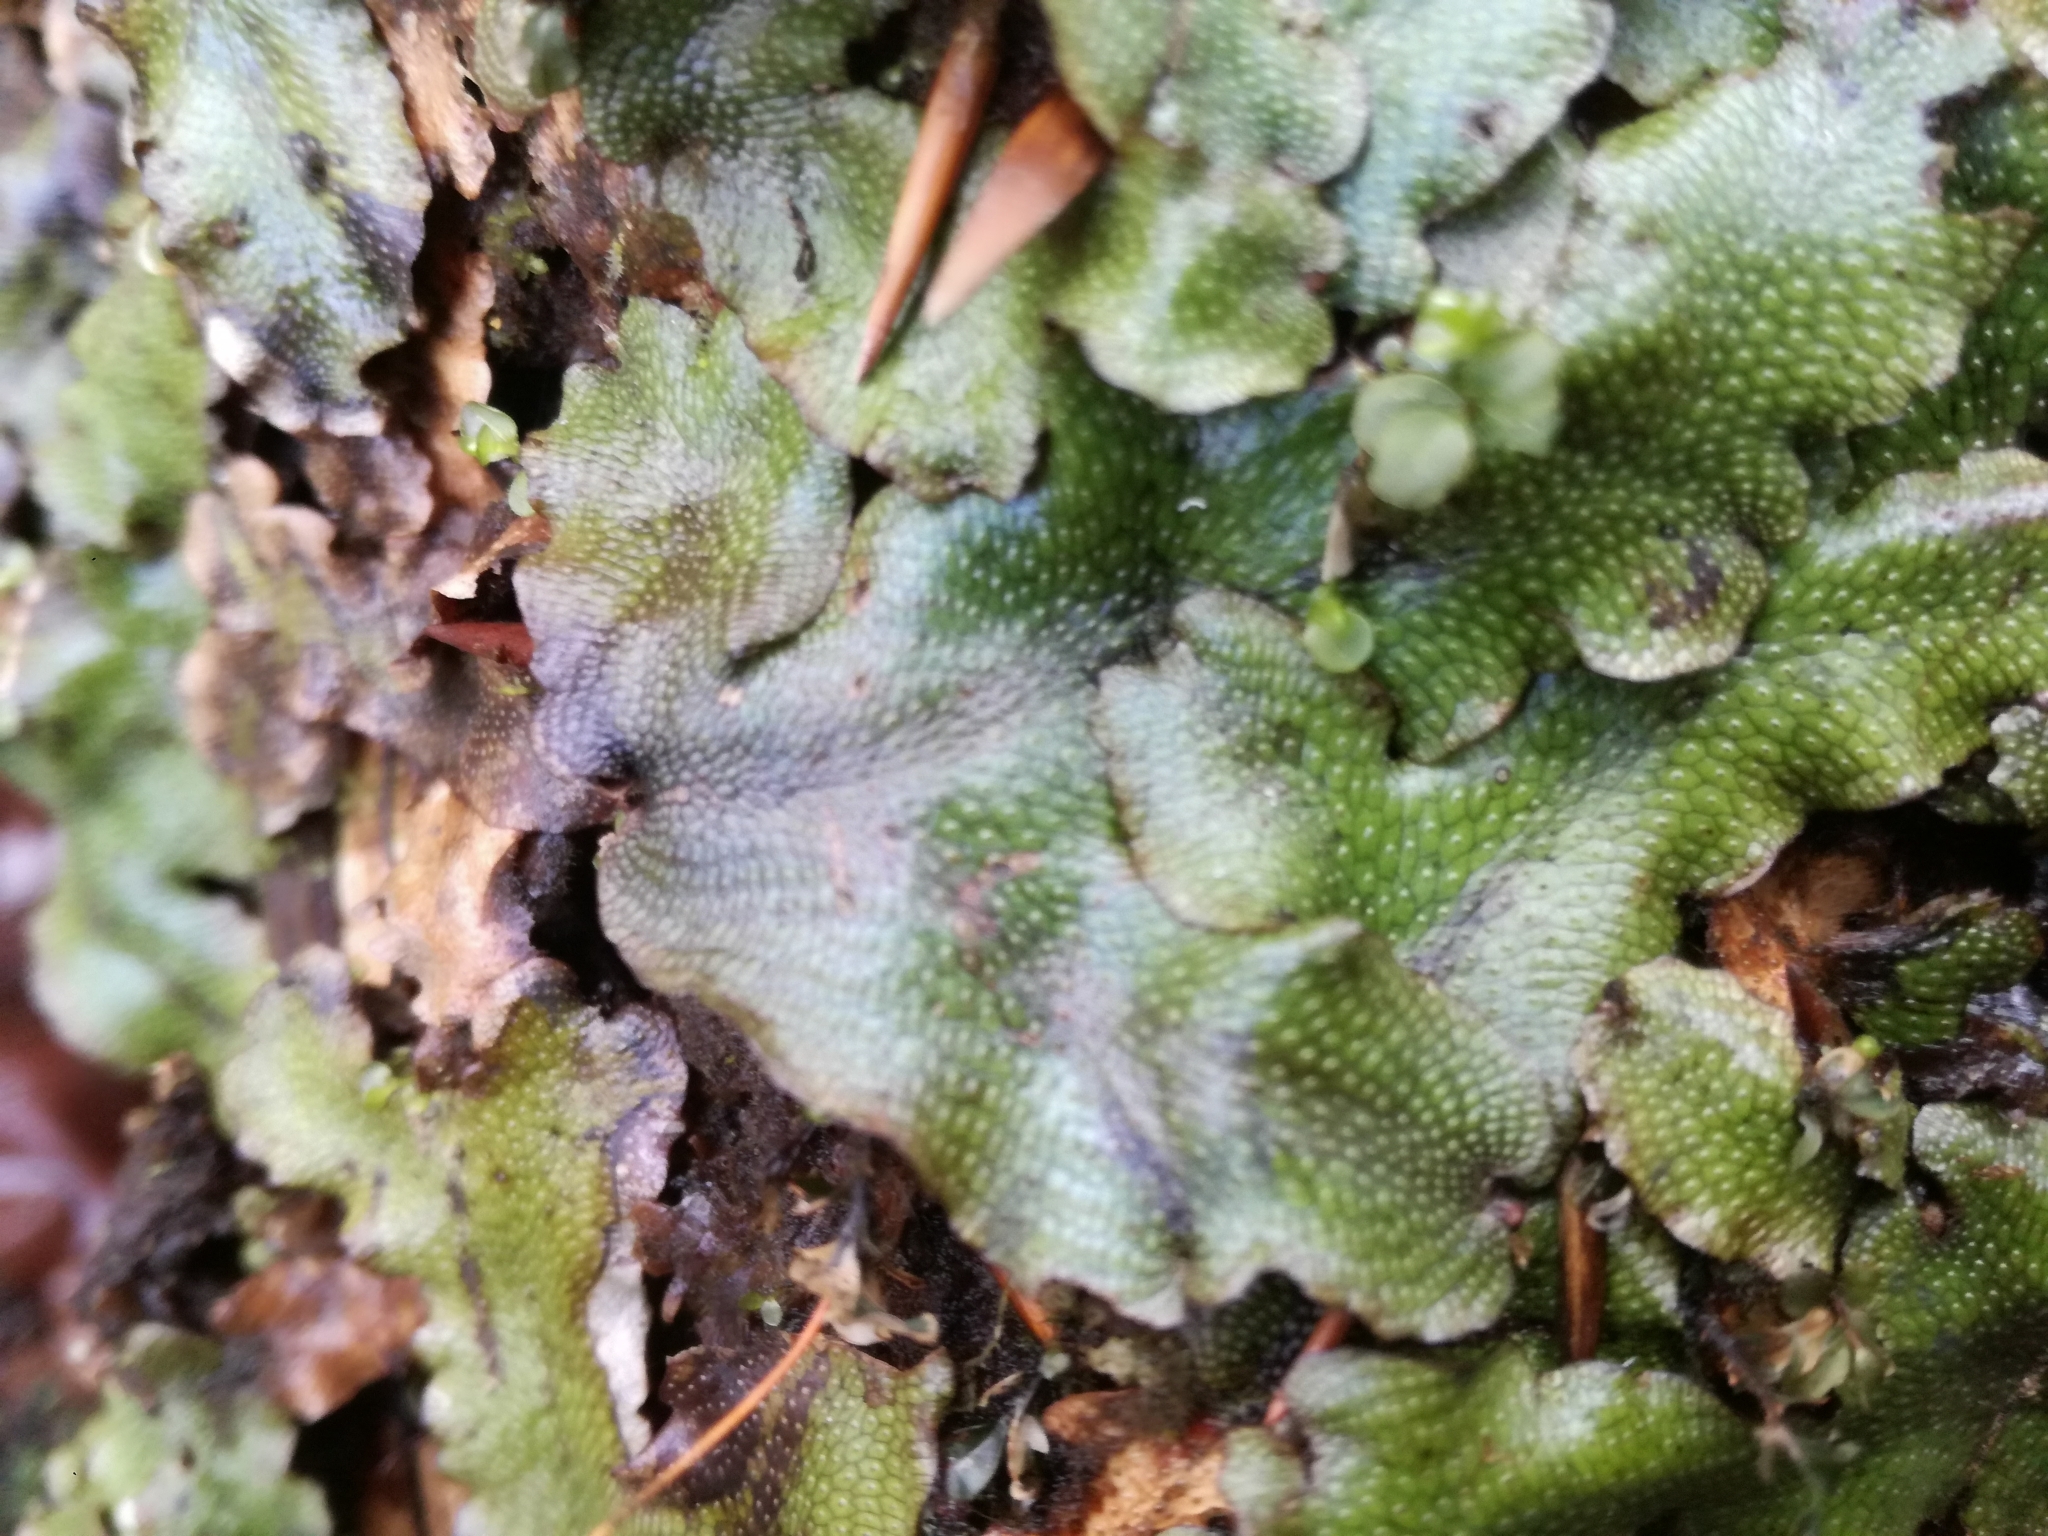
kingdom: Plantae
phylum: Marchantiophyta
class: Marchantiopsida
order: Marchantiales
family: Conocephalaceae
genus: Conocephalum
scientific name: Conocephalum conicum
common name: Great scented liverwort
